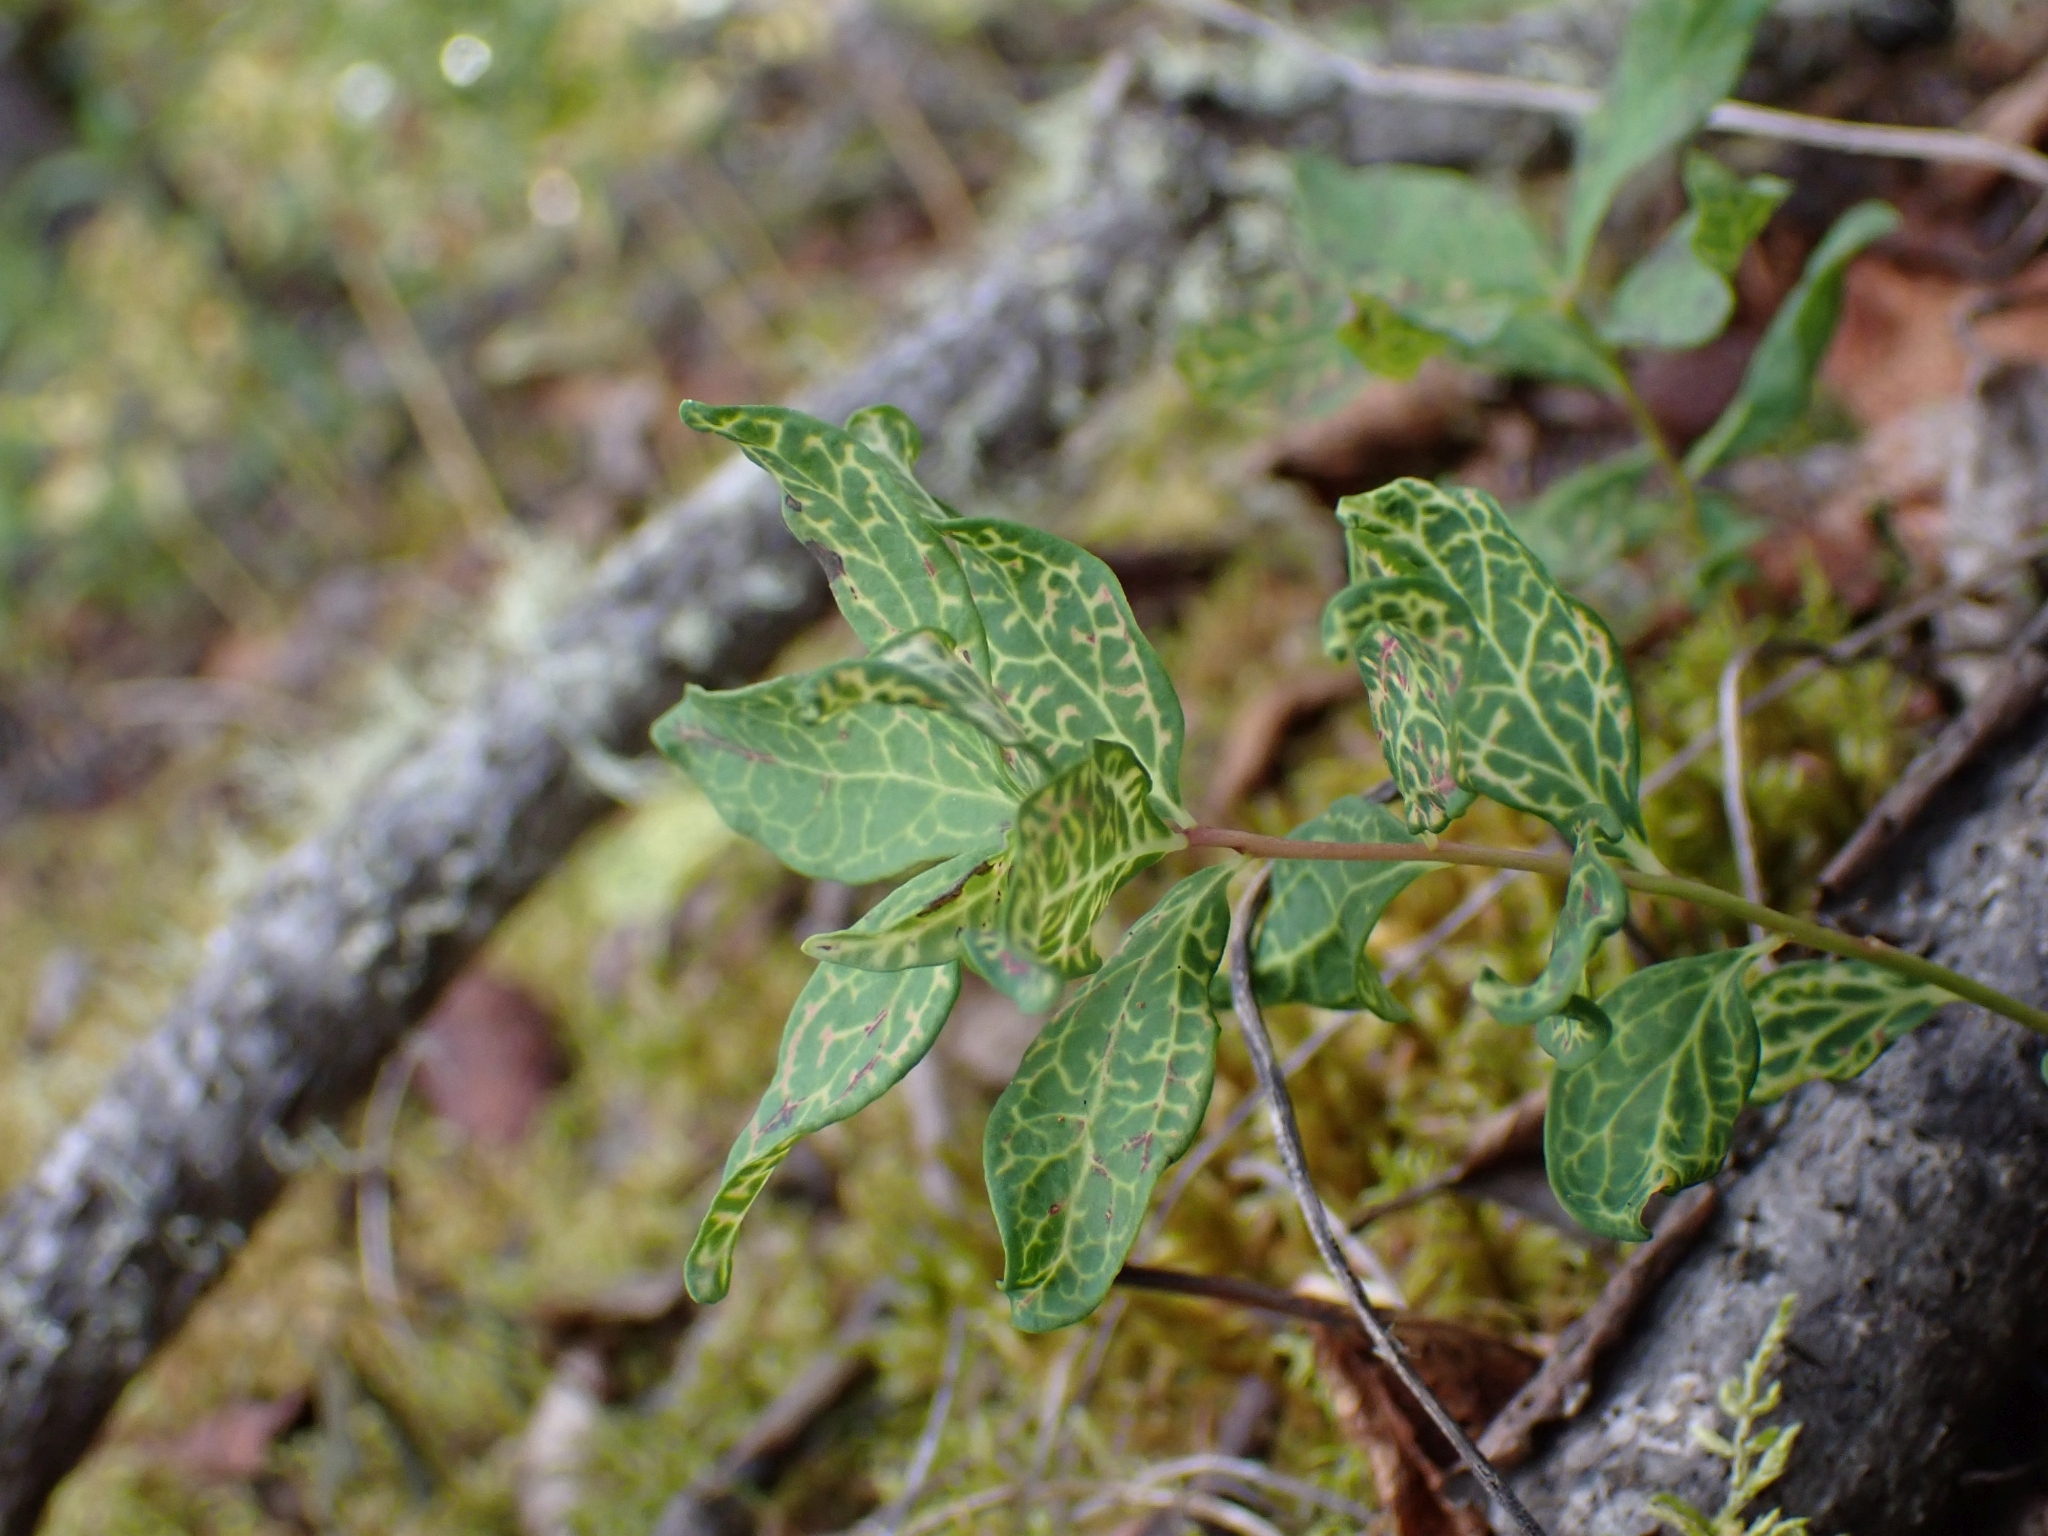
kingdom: Plantae
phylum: Tracheophyta
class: Magnoliopsida
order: Santalales
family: Comandraceae
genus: Geocaulon
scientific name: Geocaulon lividum
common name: Earthberry
